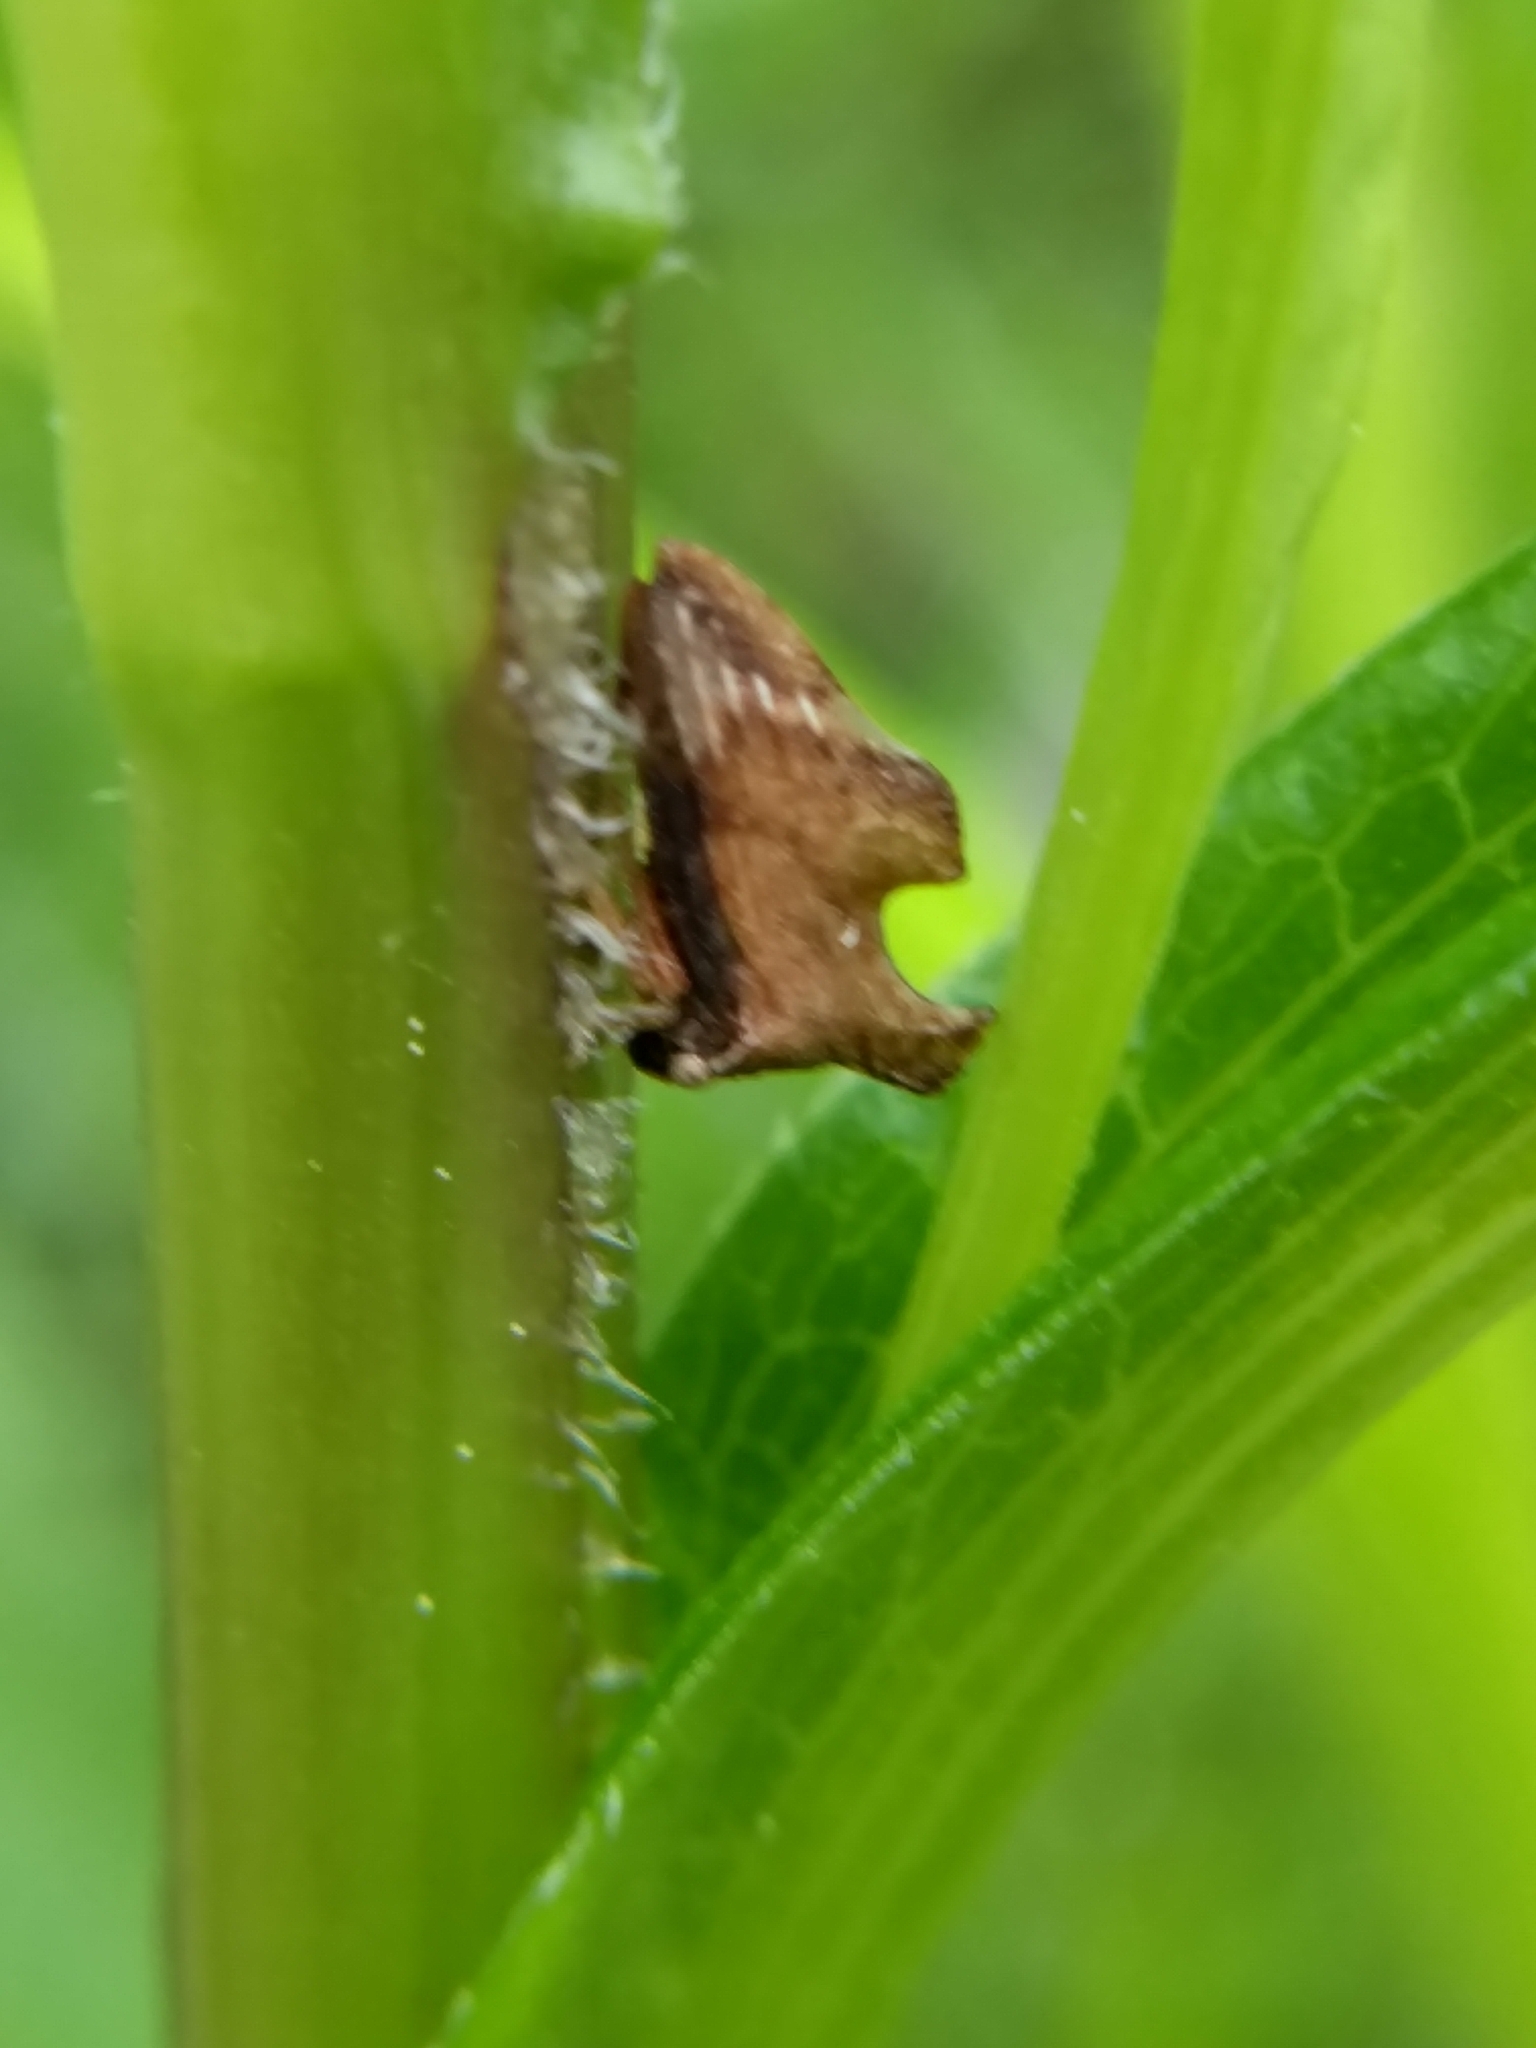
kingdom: Animalia
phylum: Arthropoda
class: Insecta
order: Hemiptera
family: Membracidae
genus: Entylia
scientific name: Entylia carinata
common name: Keeled treehopper
